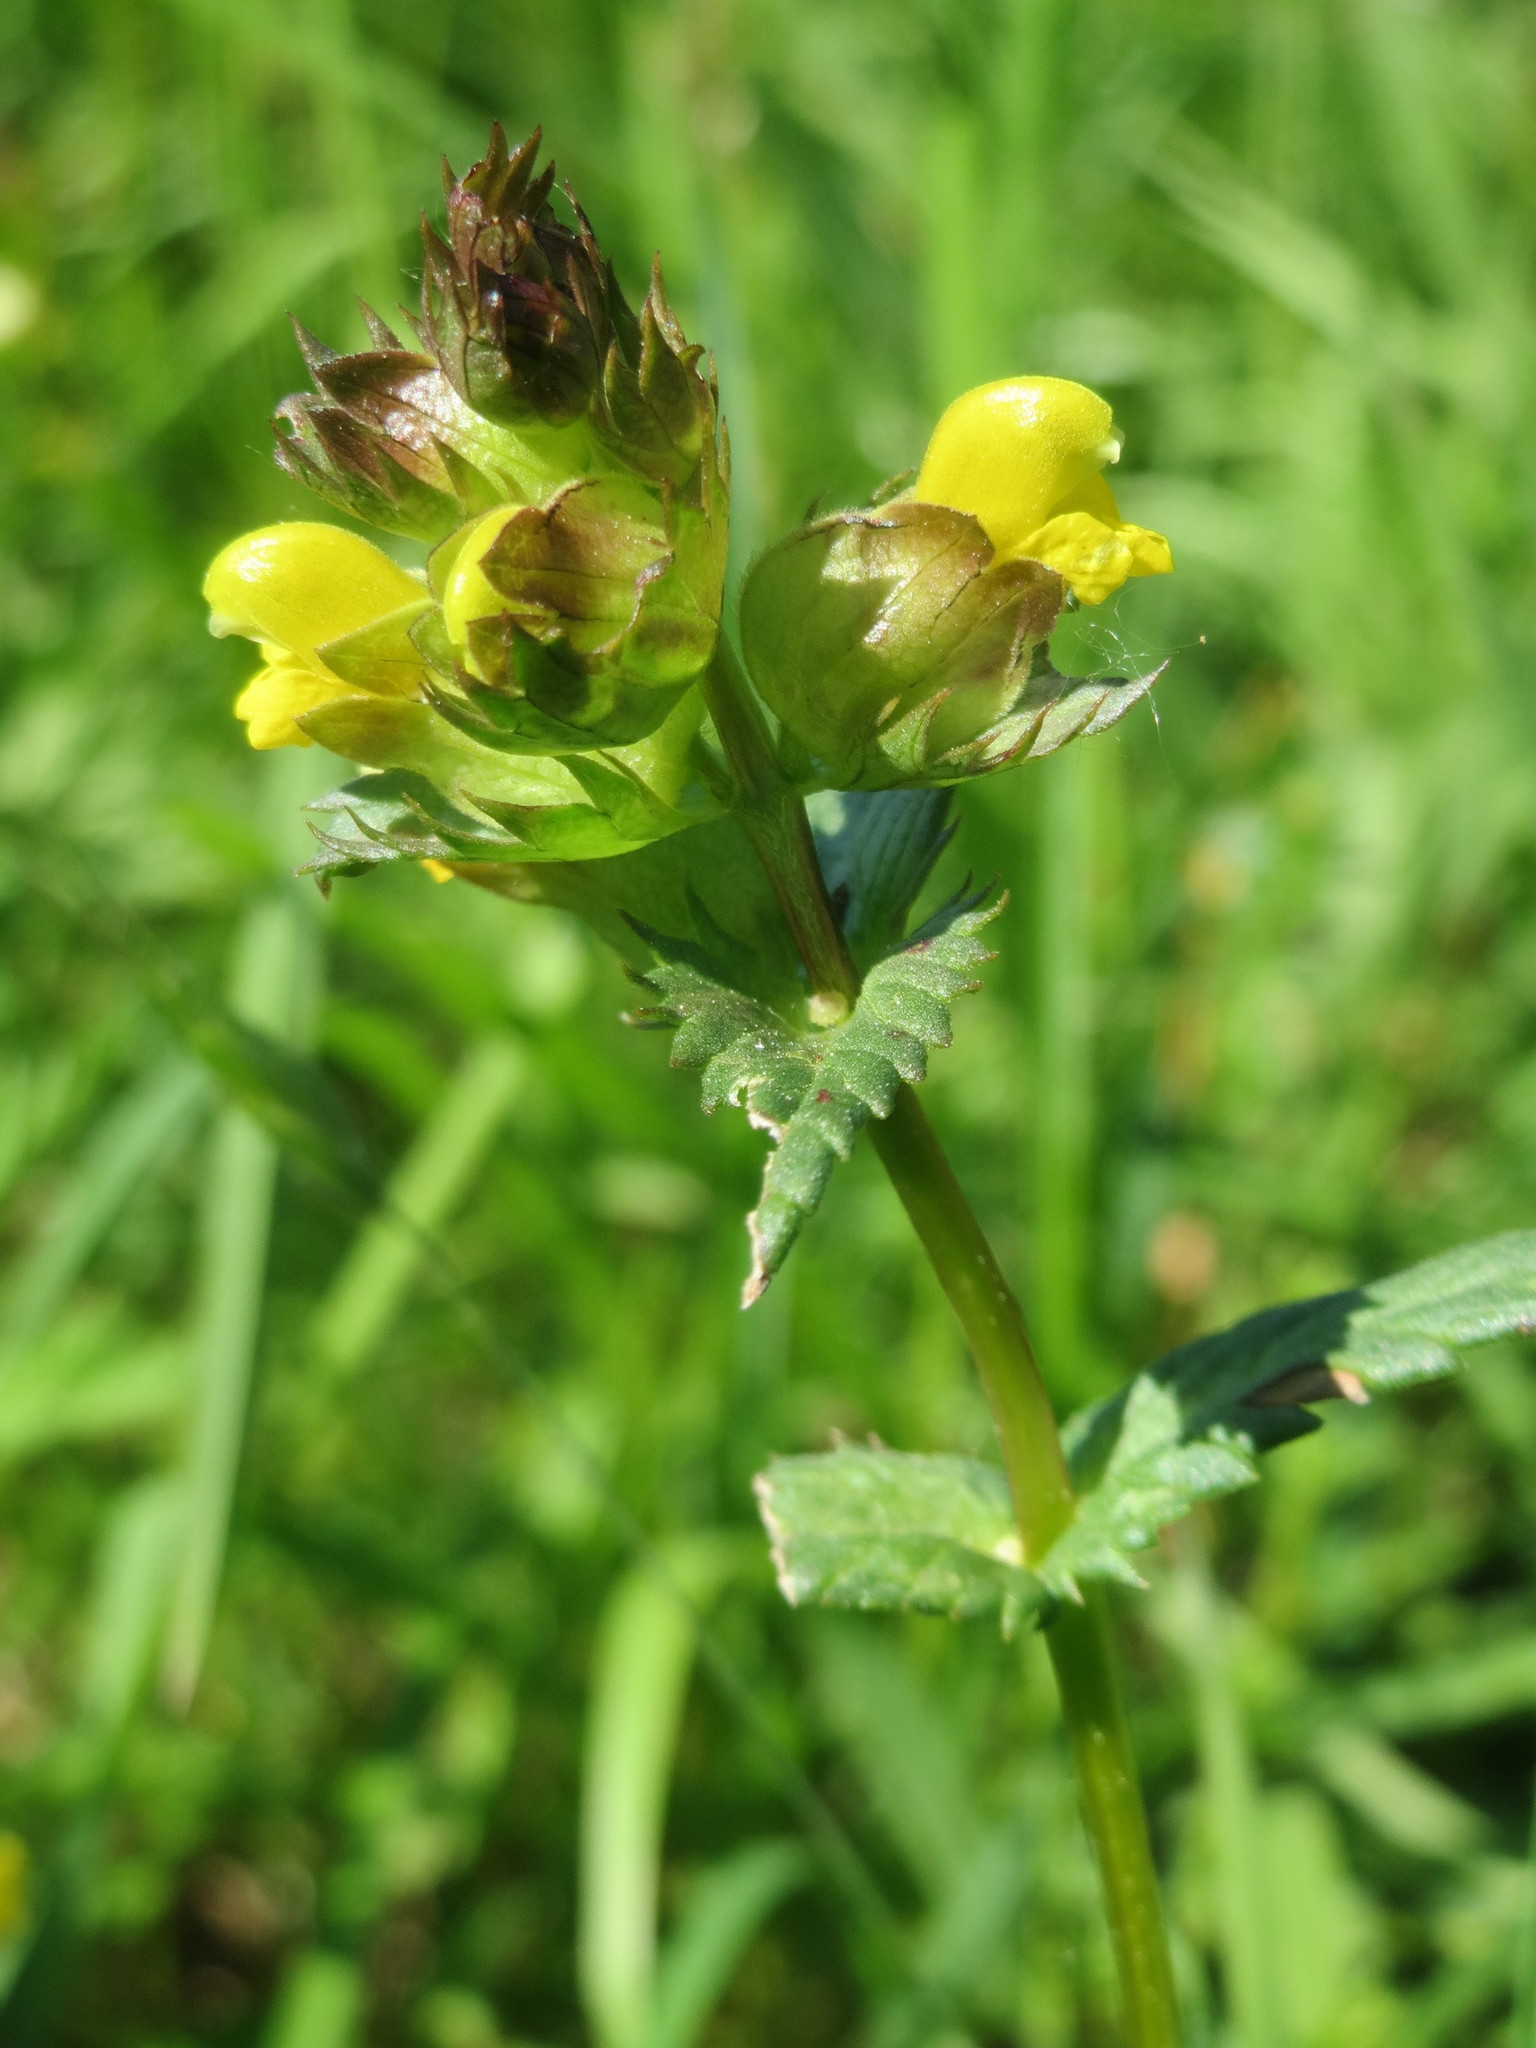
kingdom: Plantae
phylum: Tracheophyta
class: Magnoliopsida
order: Lamiales
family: Orobanchaceae
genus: Rhinanthus
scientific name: Rhinanthus minor
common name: Yellow-rattle
